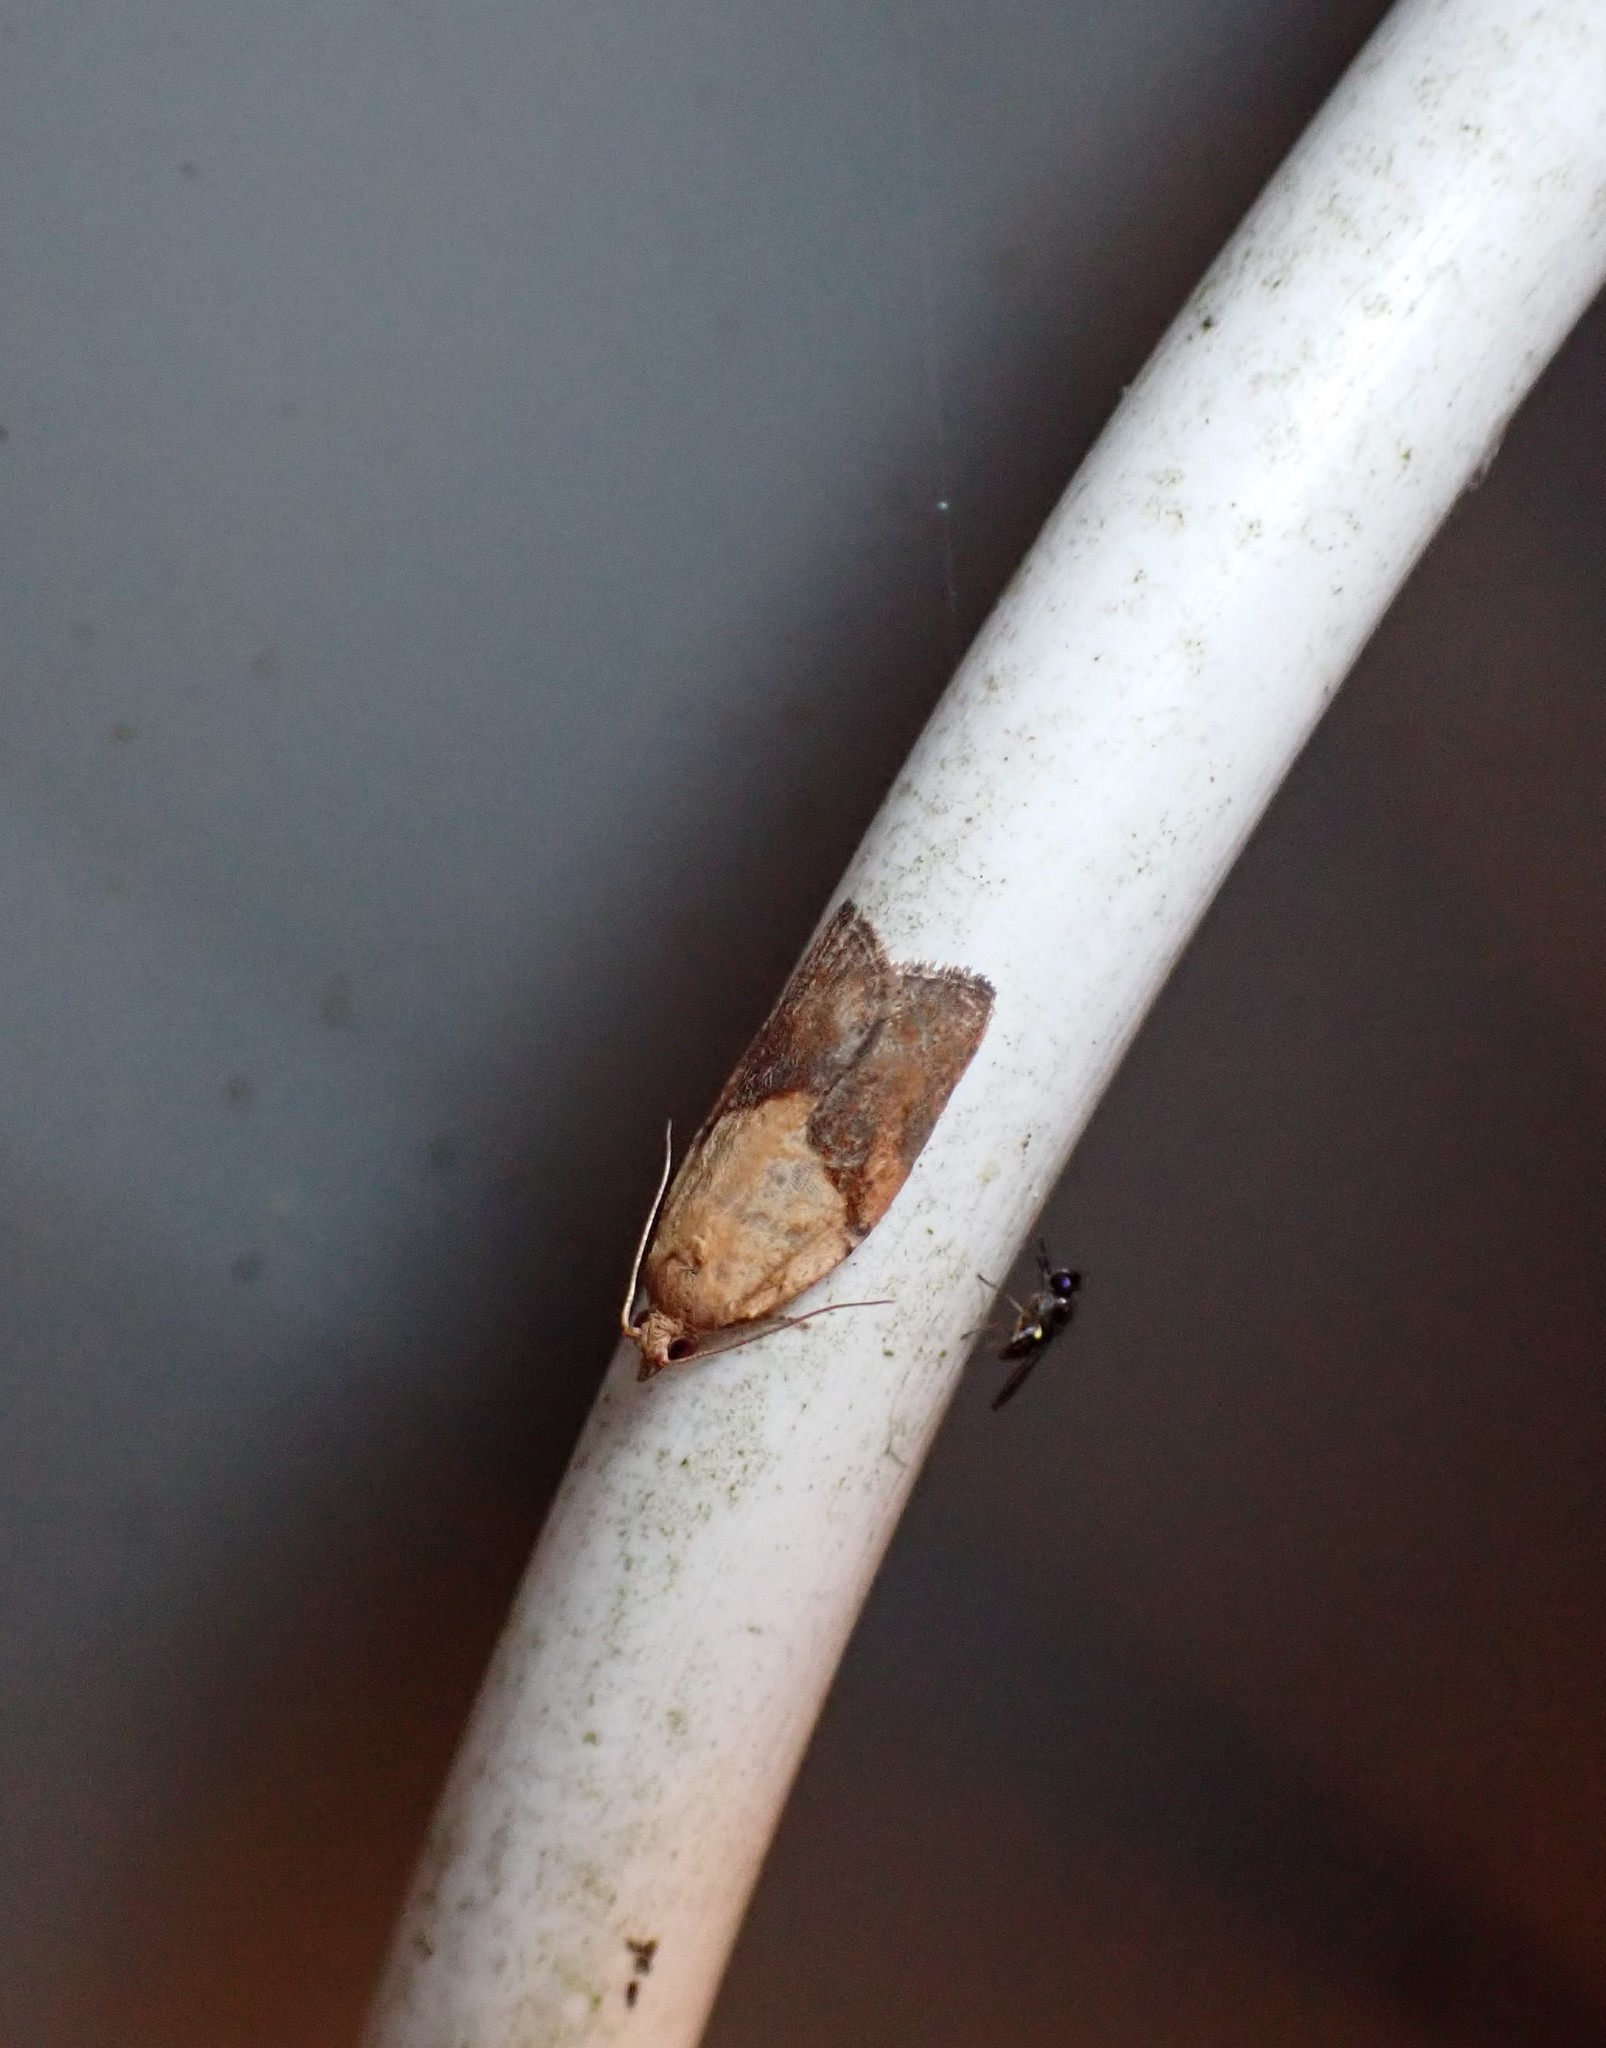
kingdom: Animalia
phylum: Arthropoda
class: Insecta
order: Lepidoptera
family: Tortricidae
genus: Epiphyas
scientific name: Epiphyas postvittana
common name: Light brown apple moth
